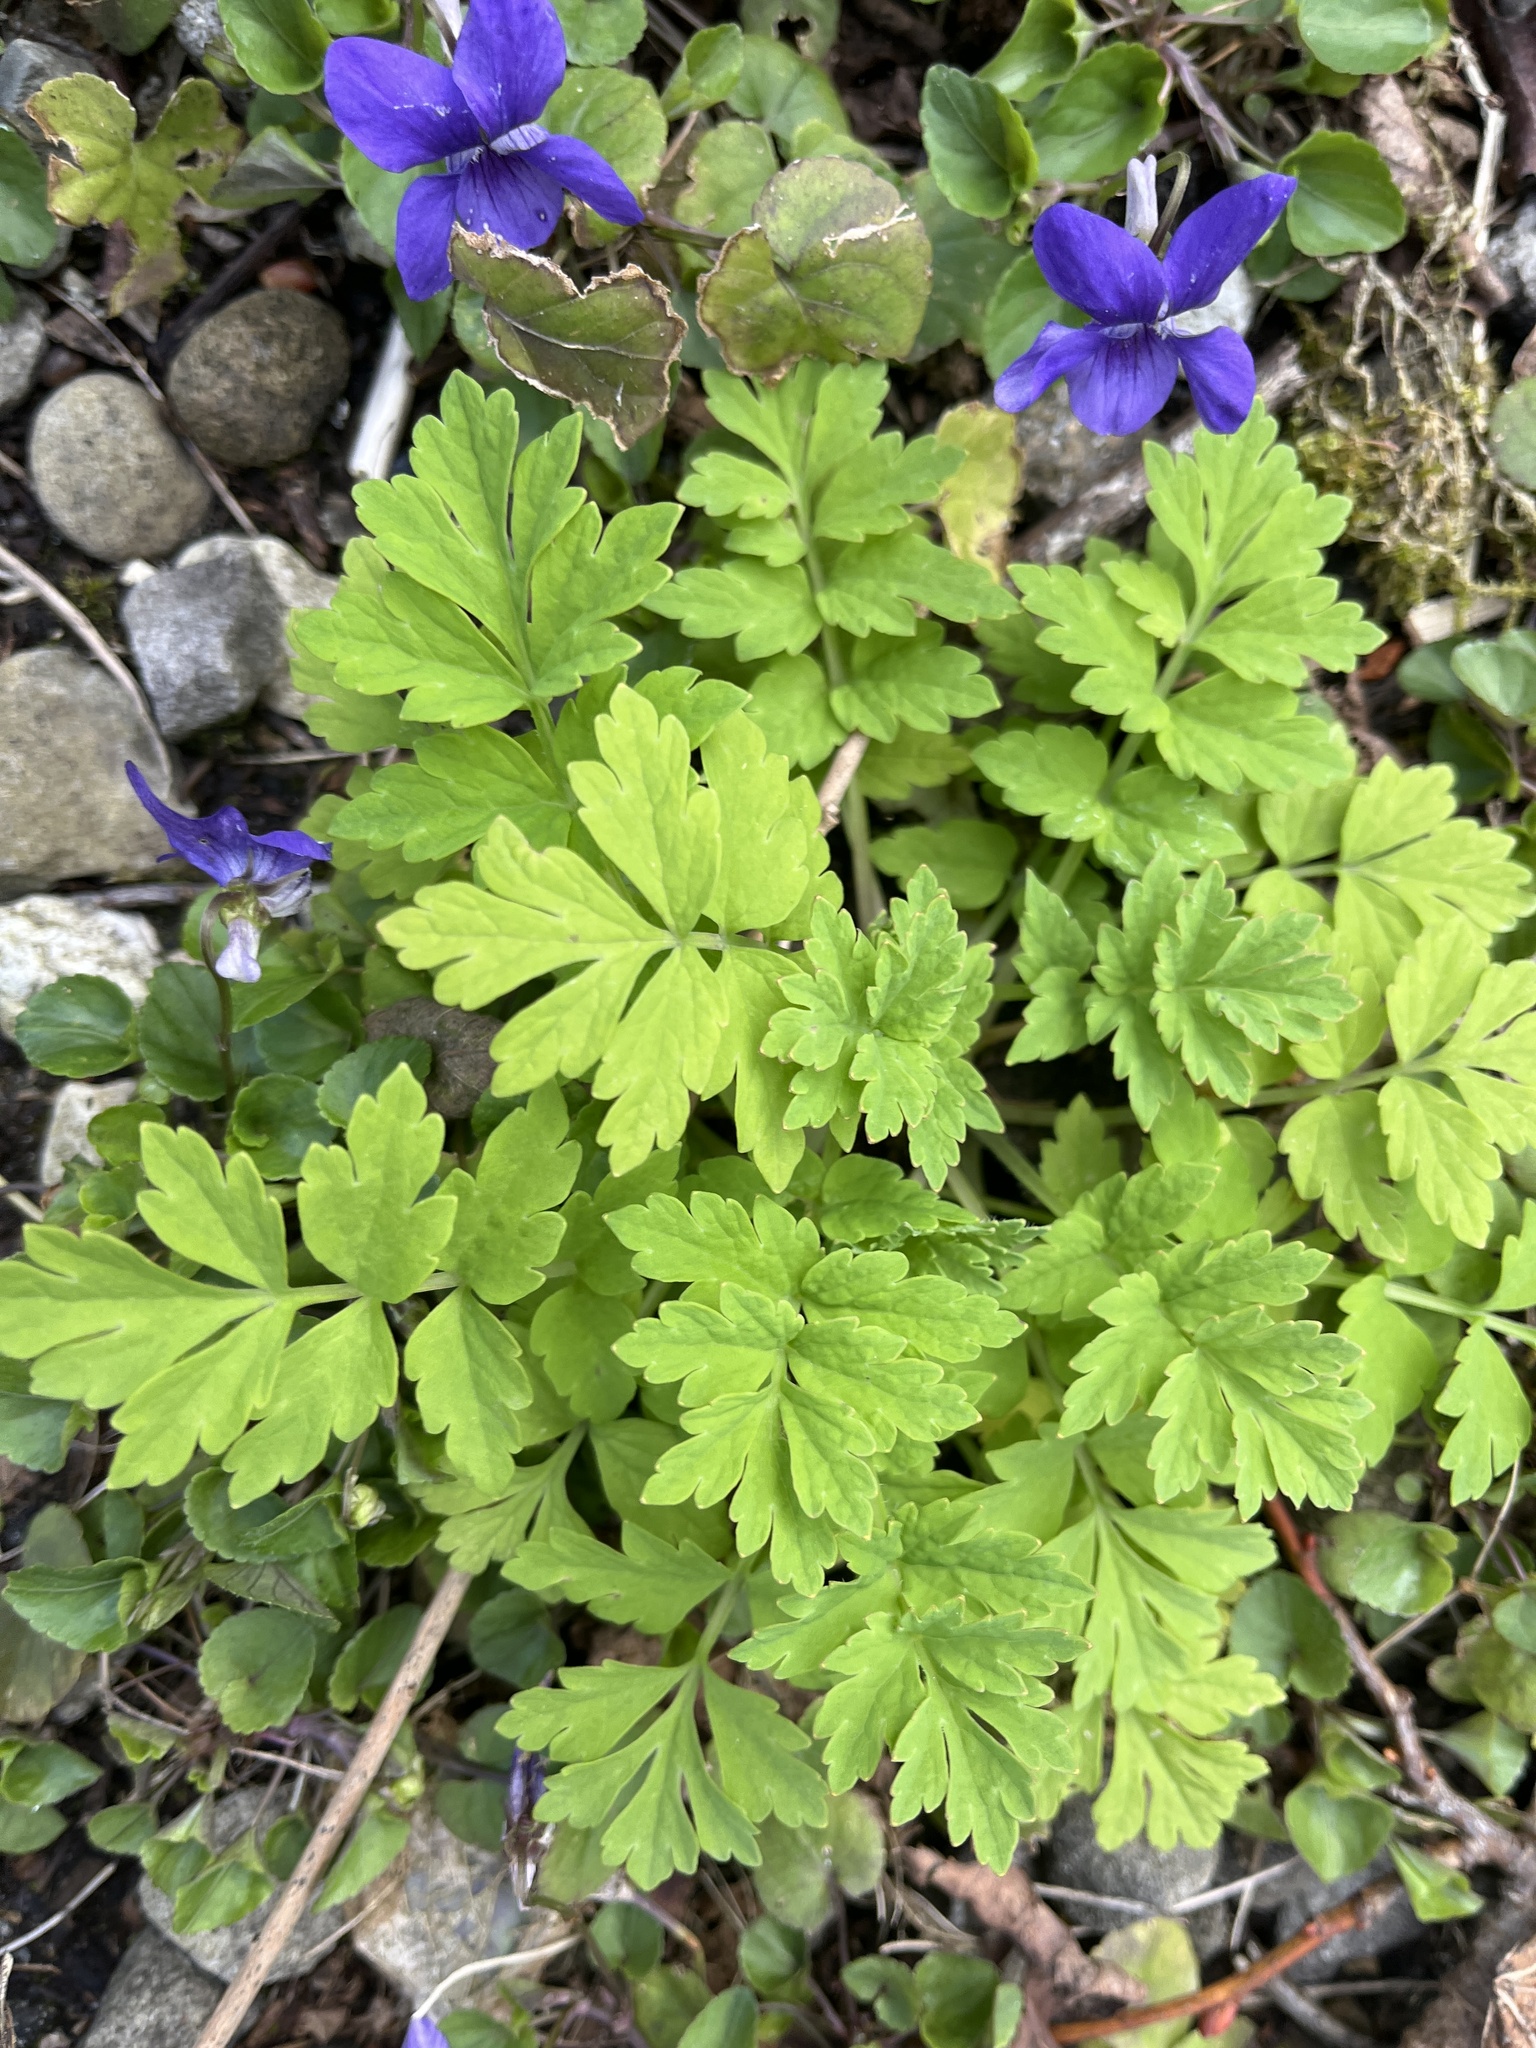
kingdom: Plantae
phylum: Tracheophyta
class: Magnoliopsida
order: Ranunculales
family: Papaveraceae
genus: Papaver
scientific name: Papaver cambricum
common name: Poppy
